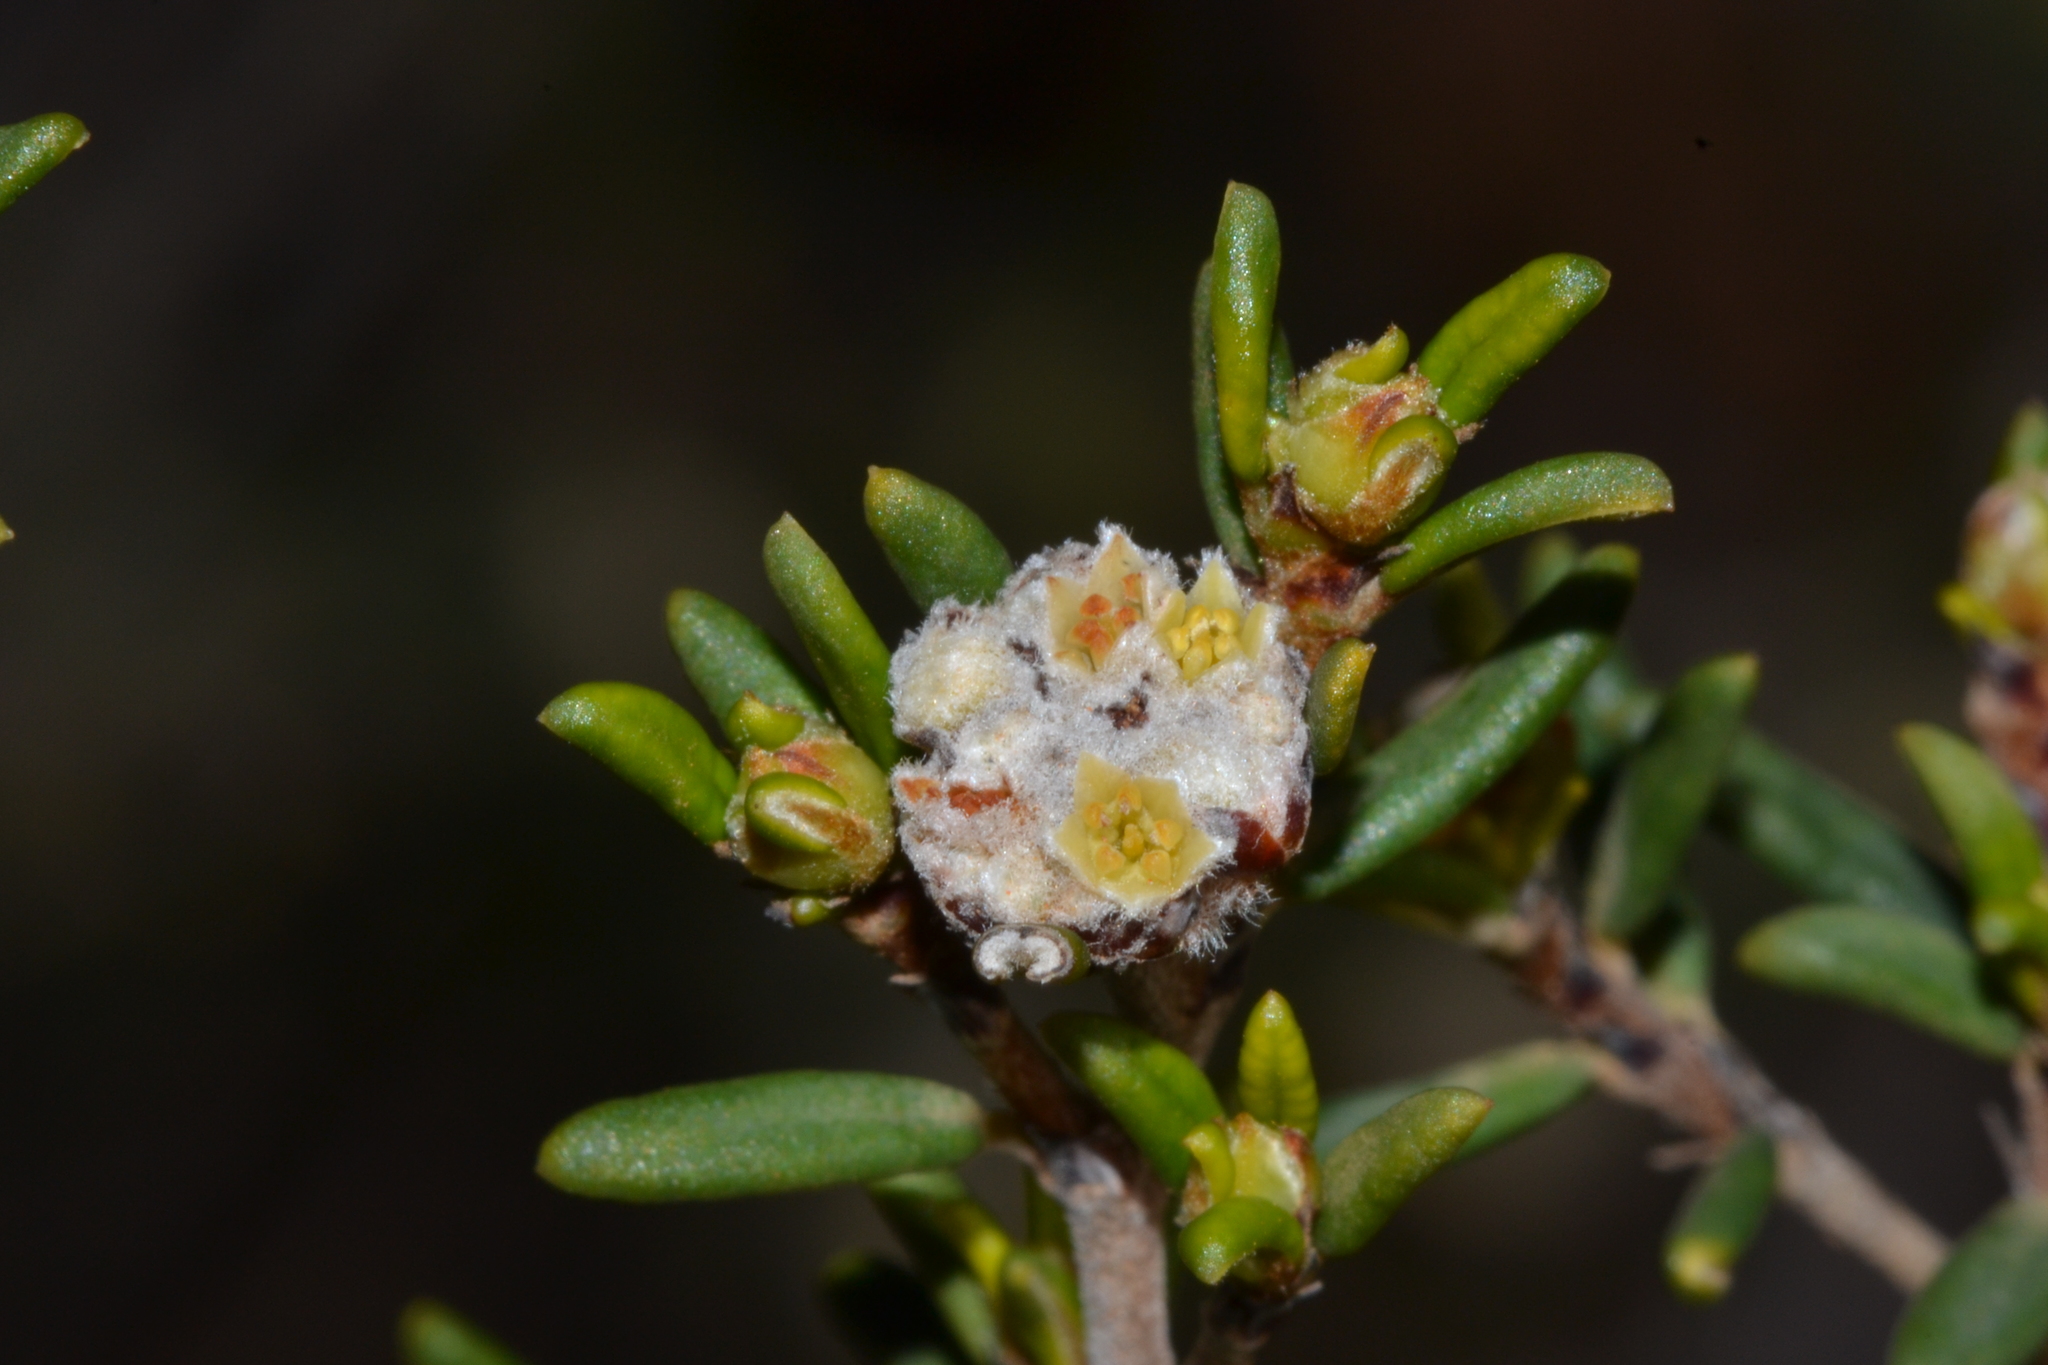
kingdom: Plantae
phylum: Tracheophyta
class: Magnoliopsida
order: Rosales
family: Rhamnaceae
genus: Spyridium
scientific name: Spyridium microcephalum
